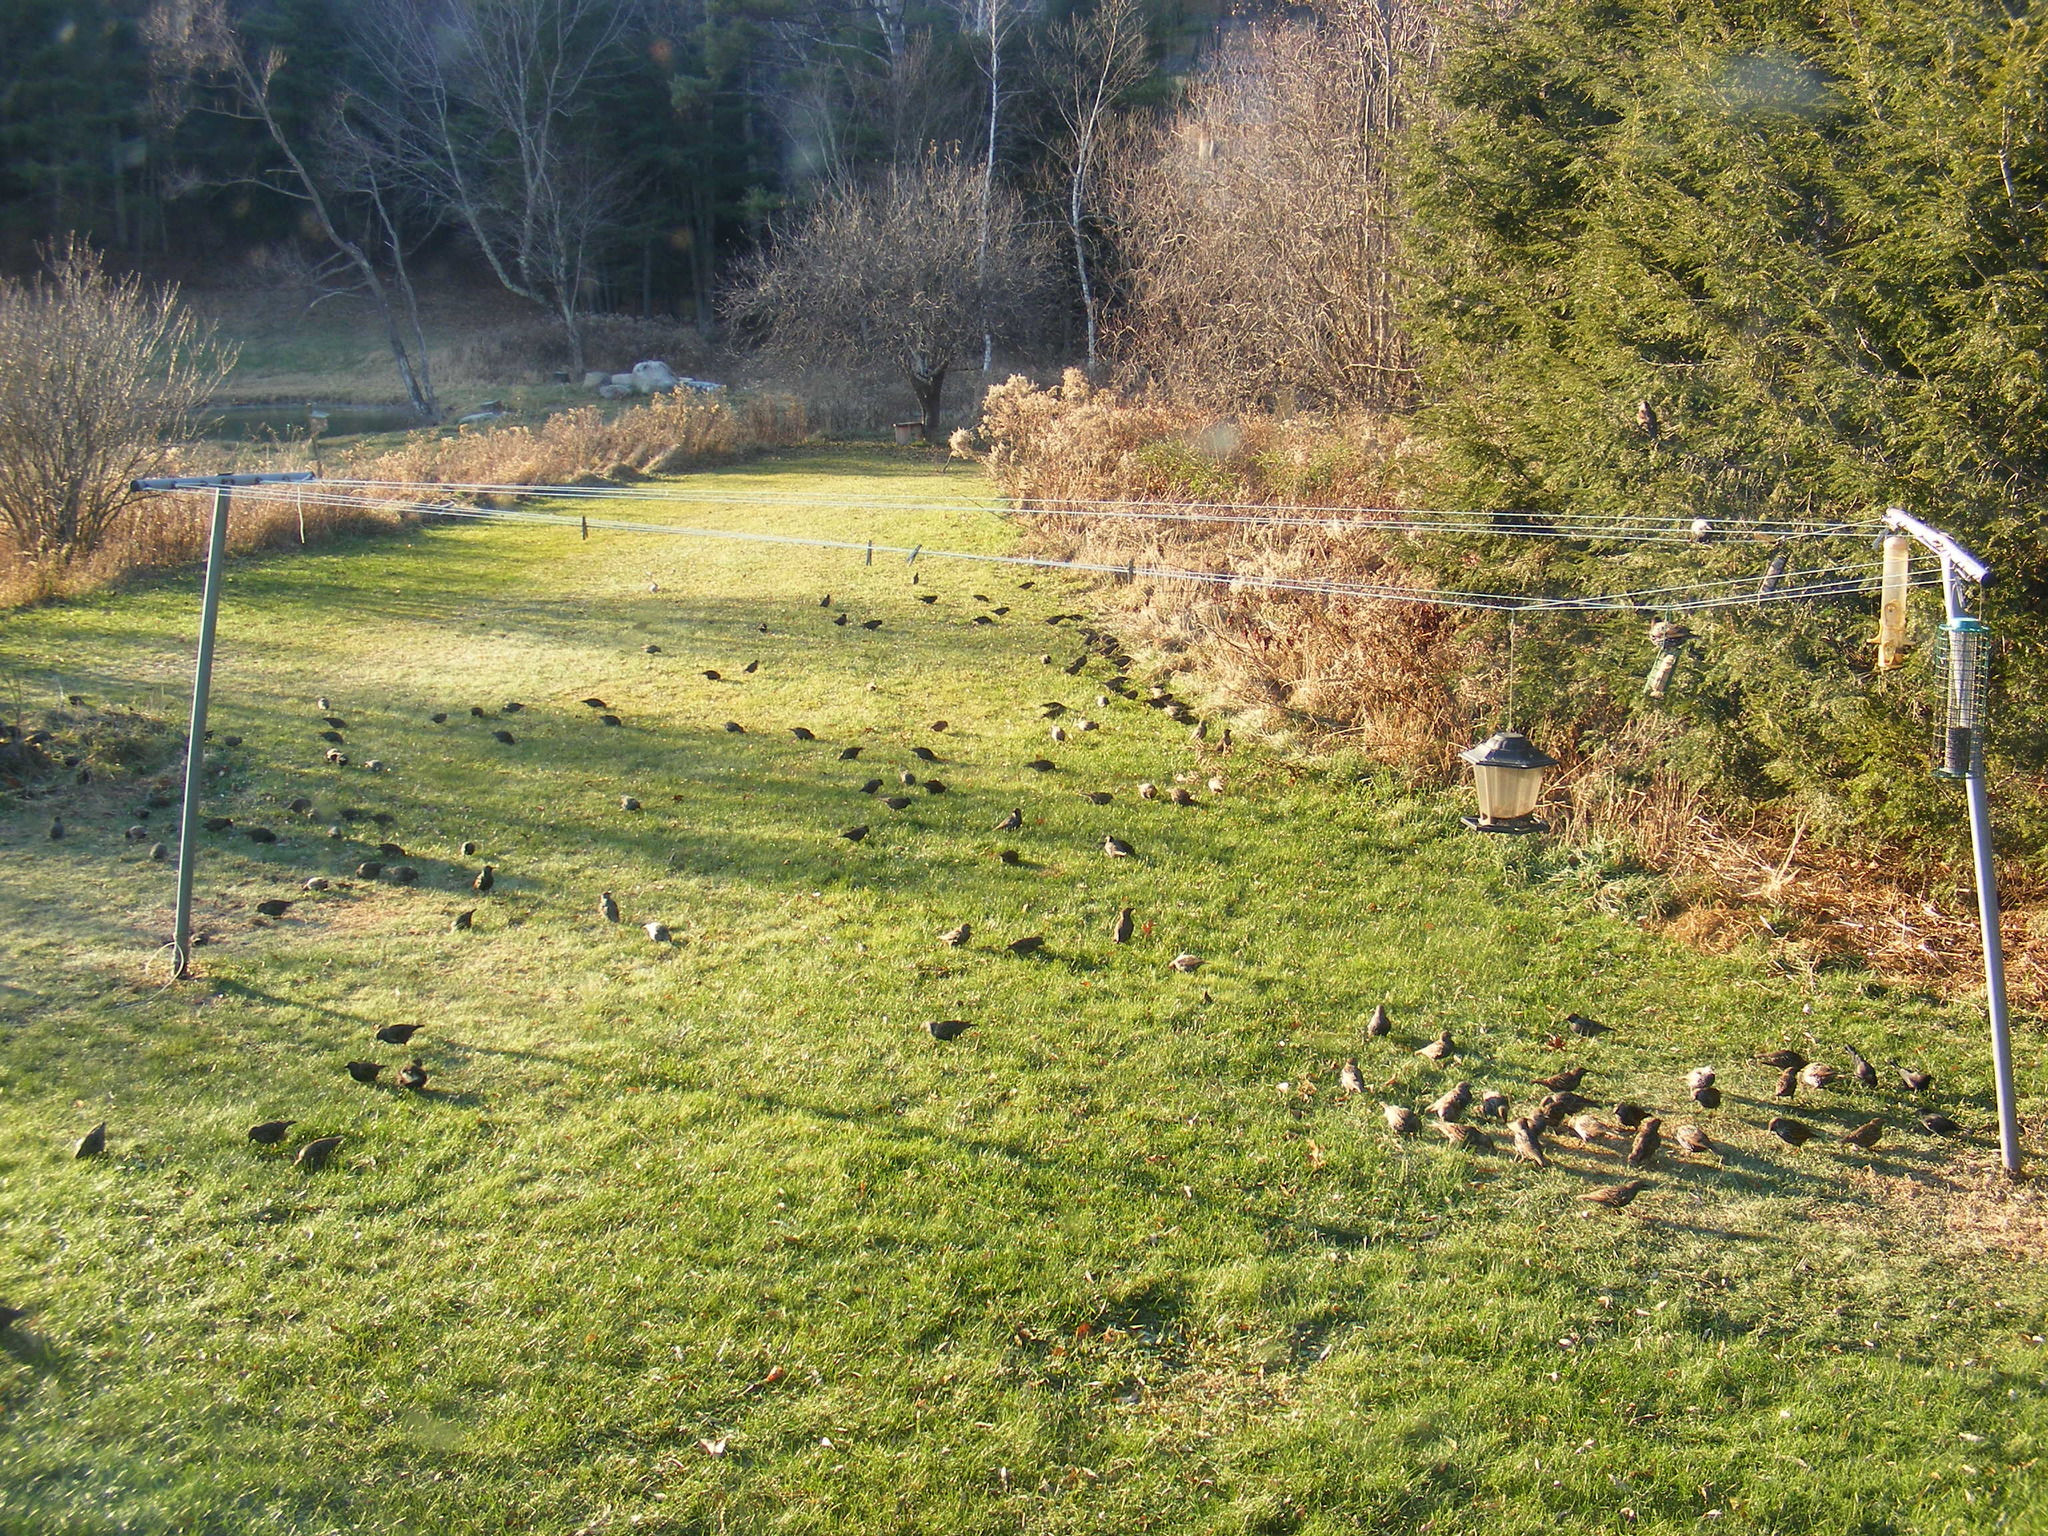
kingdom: Animalia
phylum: Chordata
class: Aves
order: Passeriformes
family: Sturnidae
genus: Sturnus
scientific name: Sturnus vulgaris
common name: Common starling
